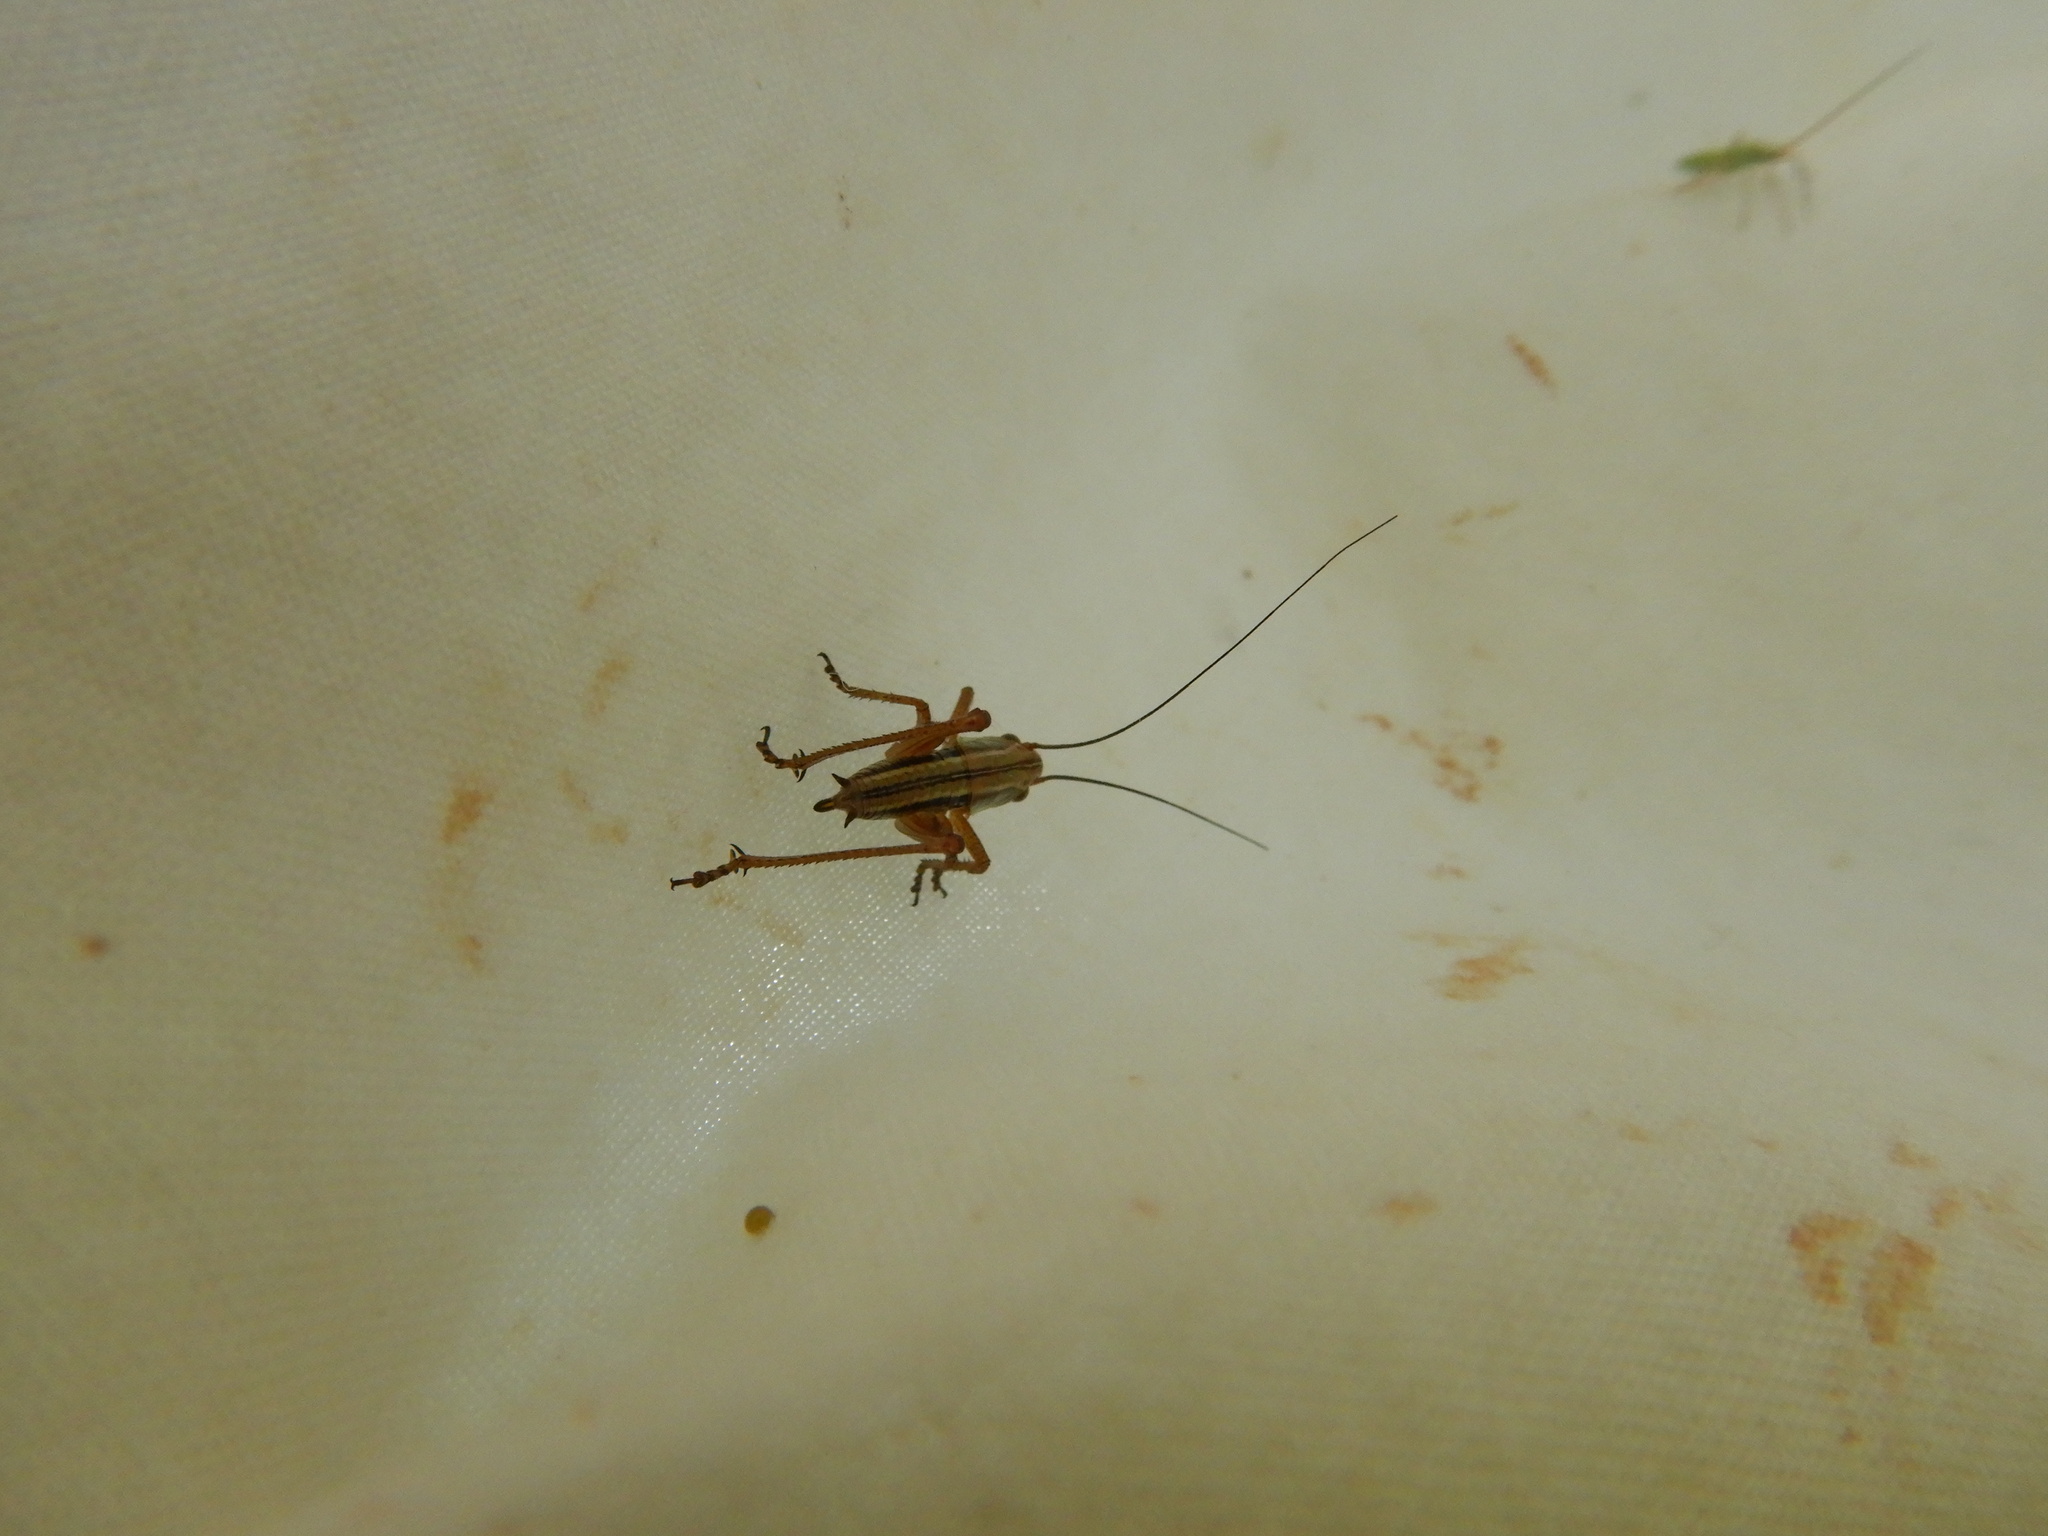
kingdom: Animalia
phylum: Arthropoda
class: Insecta
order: Orthoptera
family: Tettigoniidae
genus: Roeseliana
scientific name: Roeseliana roeselii
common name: Roesel's bush cricket
